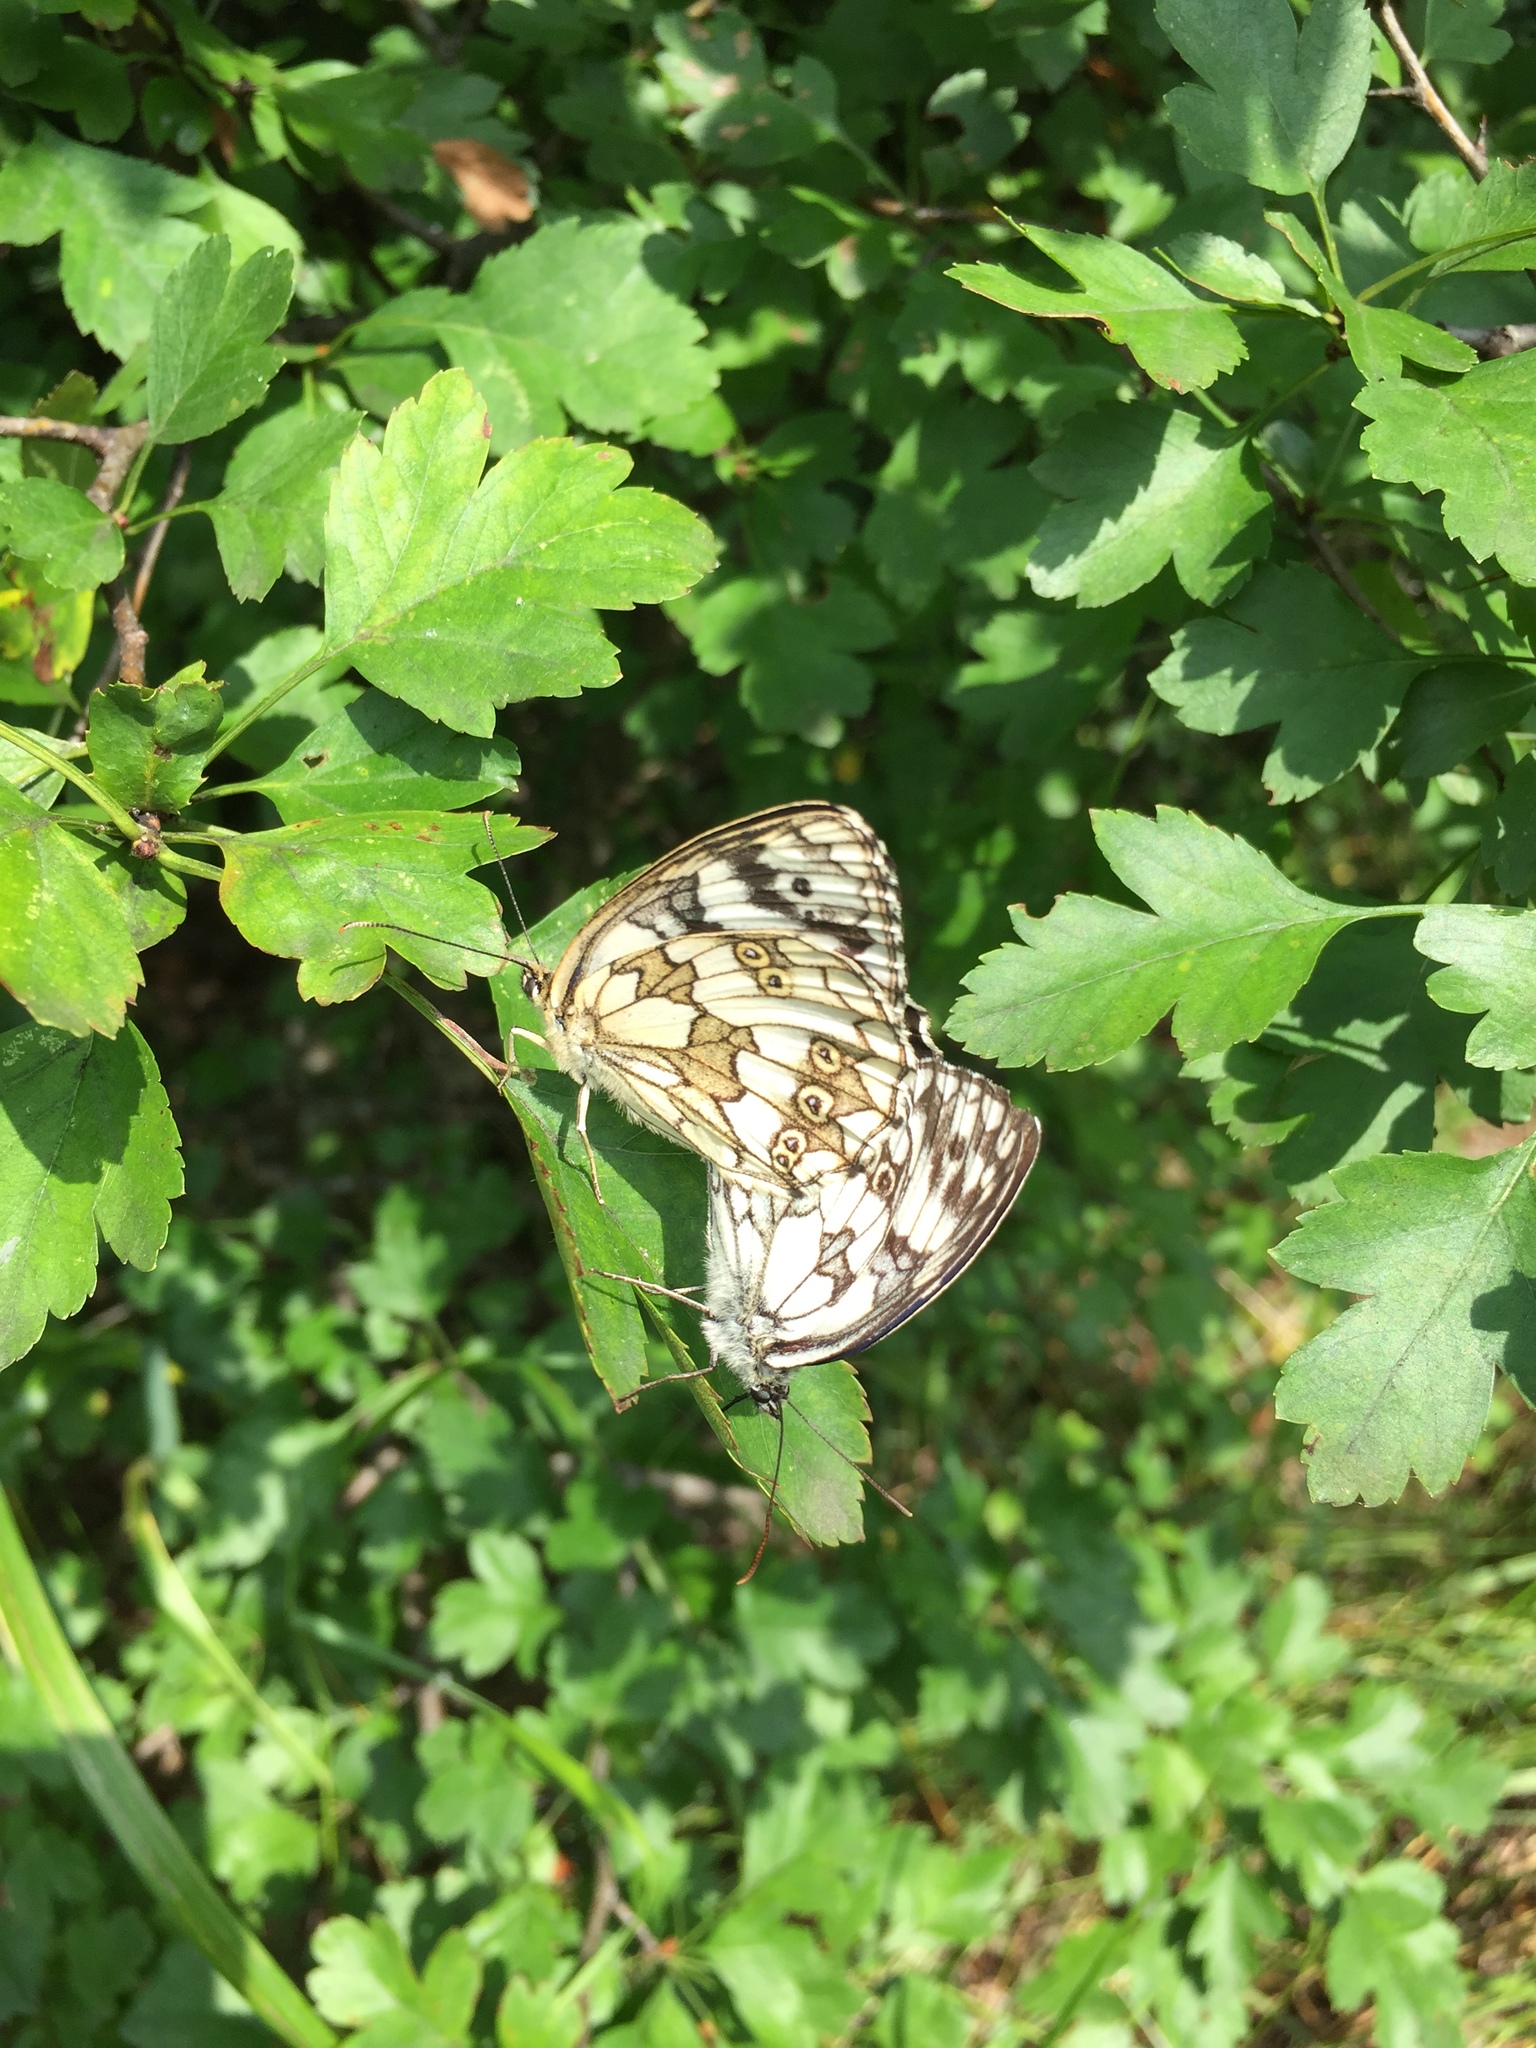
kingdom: Animalia
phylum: Arthropoda
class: Insecta
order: Lepidoptera
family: Nymphalidae
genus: Melanargia
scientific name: Melanargia galathea
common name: Marbled white
